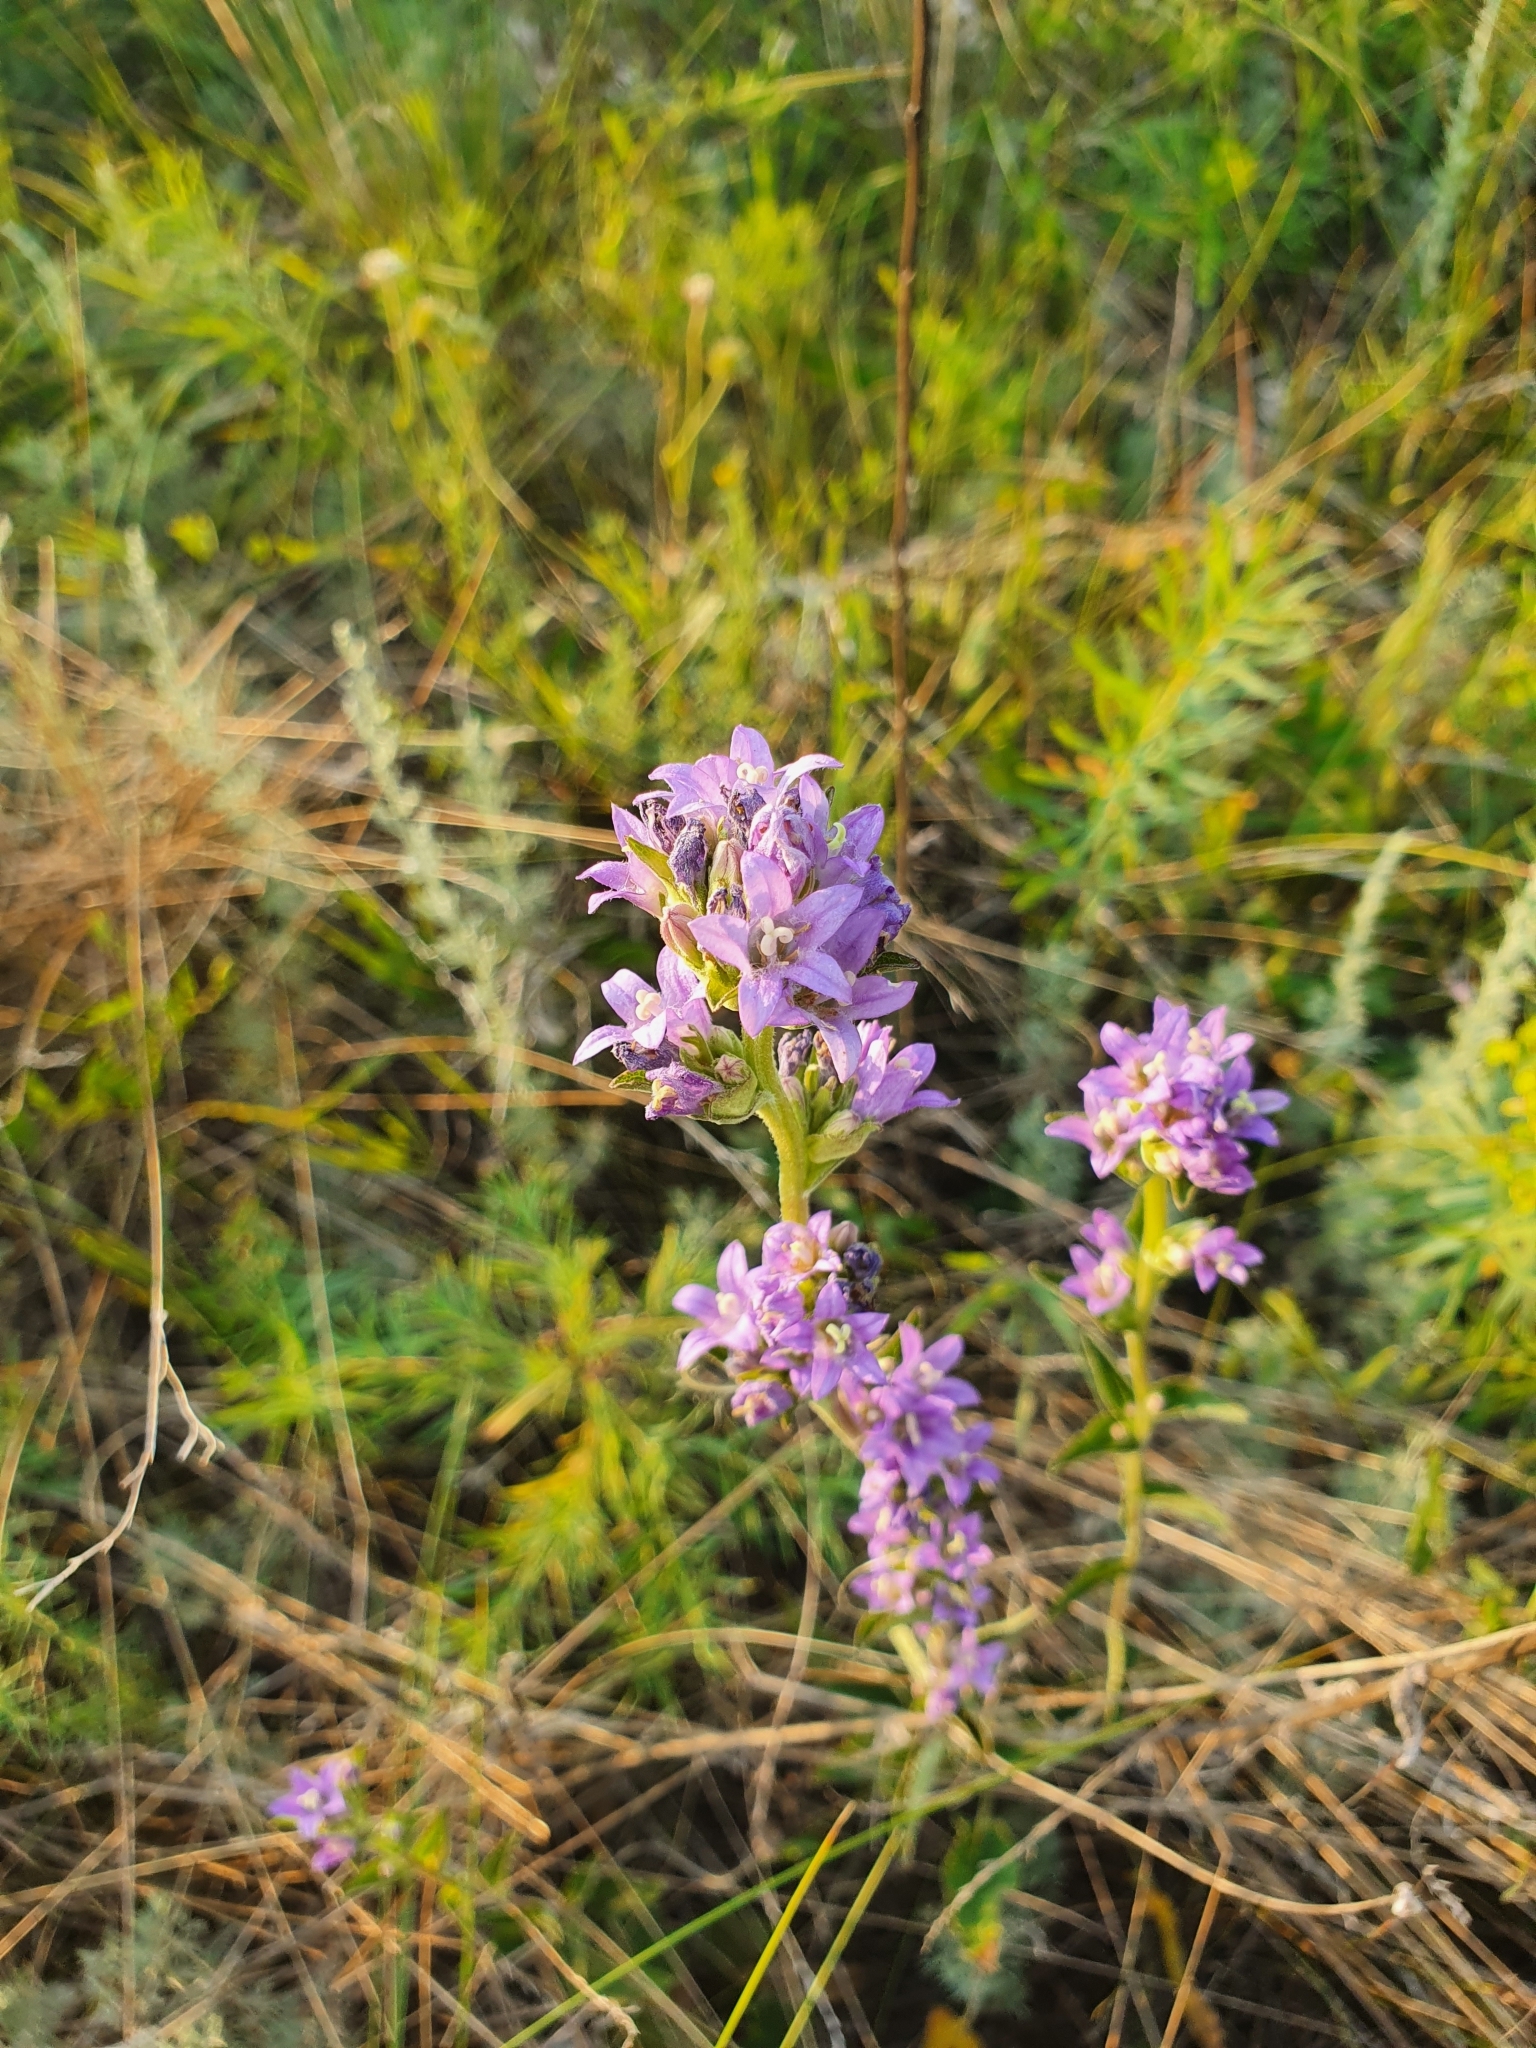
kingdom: Plantae
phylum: Tracheophyta
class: Magnoliopsida
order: Asterales
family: Campanulaceae
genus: Campanula
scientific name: Campanula glomerata
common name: Clustered bellflower
